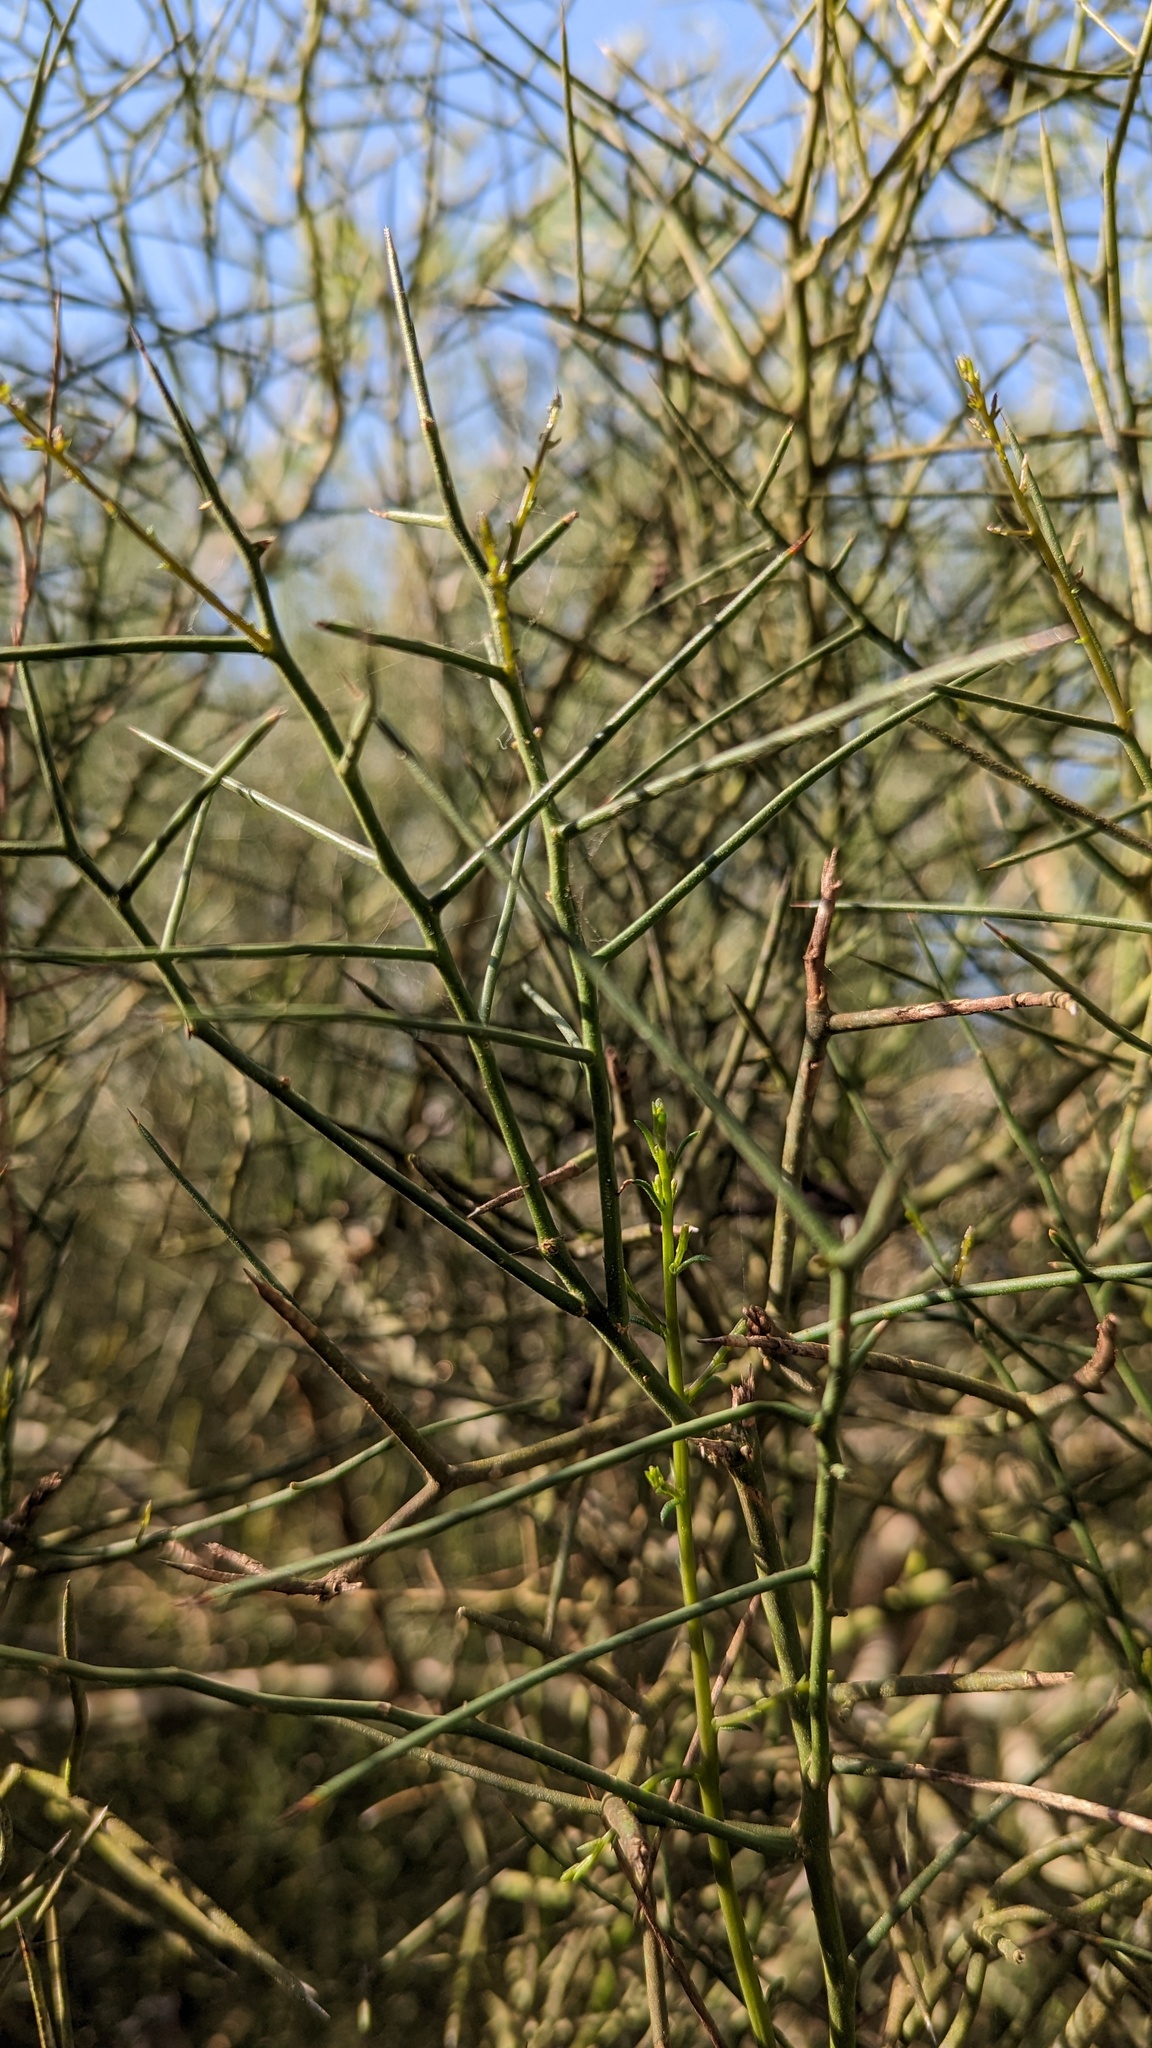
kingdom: Plantae
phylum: Tracheophyta
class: Magnoliopsida
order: Brassicales
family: Koeberliniaceae
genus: Koeberlinia
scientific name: Koeberlinia spinosa
